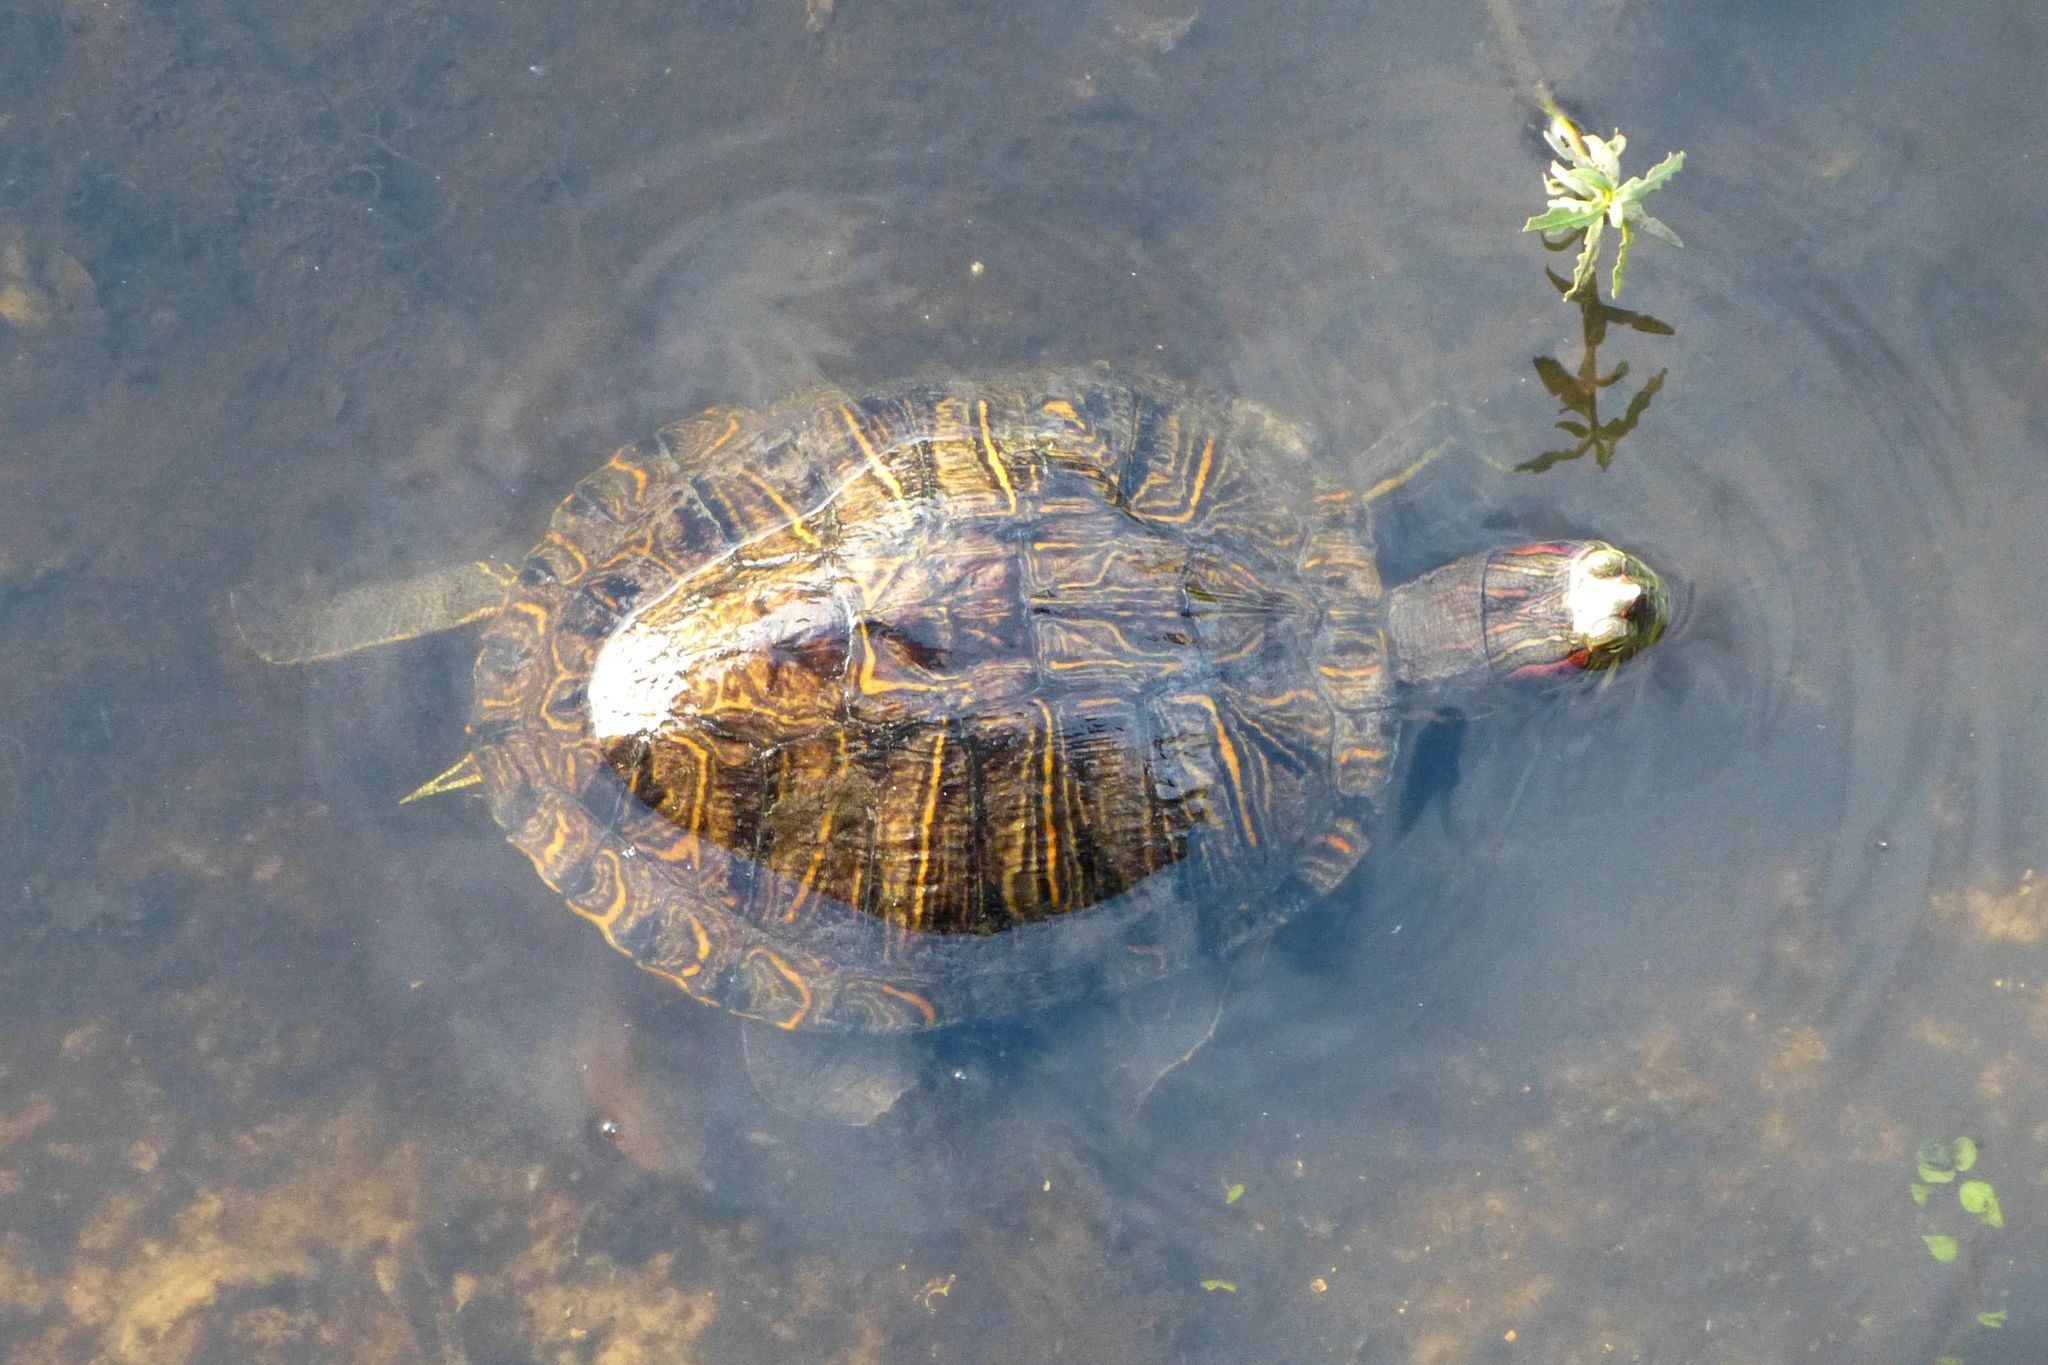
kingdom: Animalia
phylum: Chordata
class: Testudines
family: Emydidae
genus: Trachemys
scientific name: Trachemys scripta
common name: Slider
